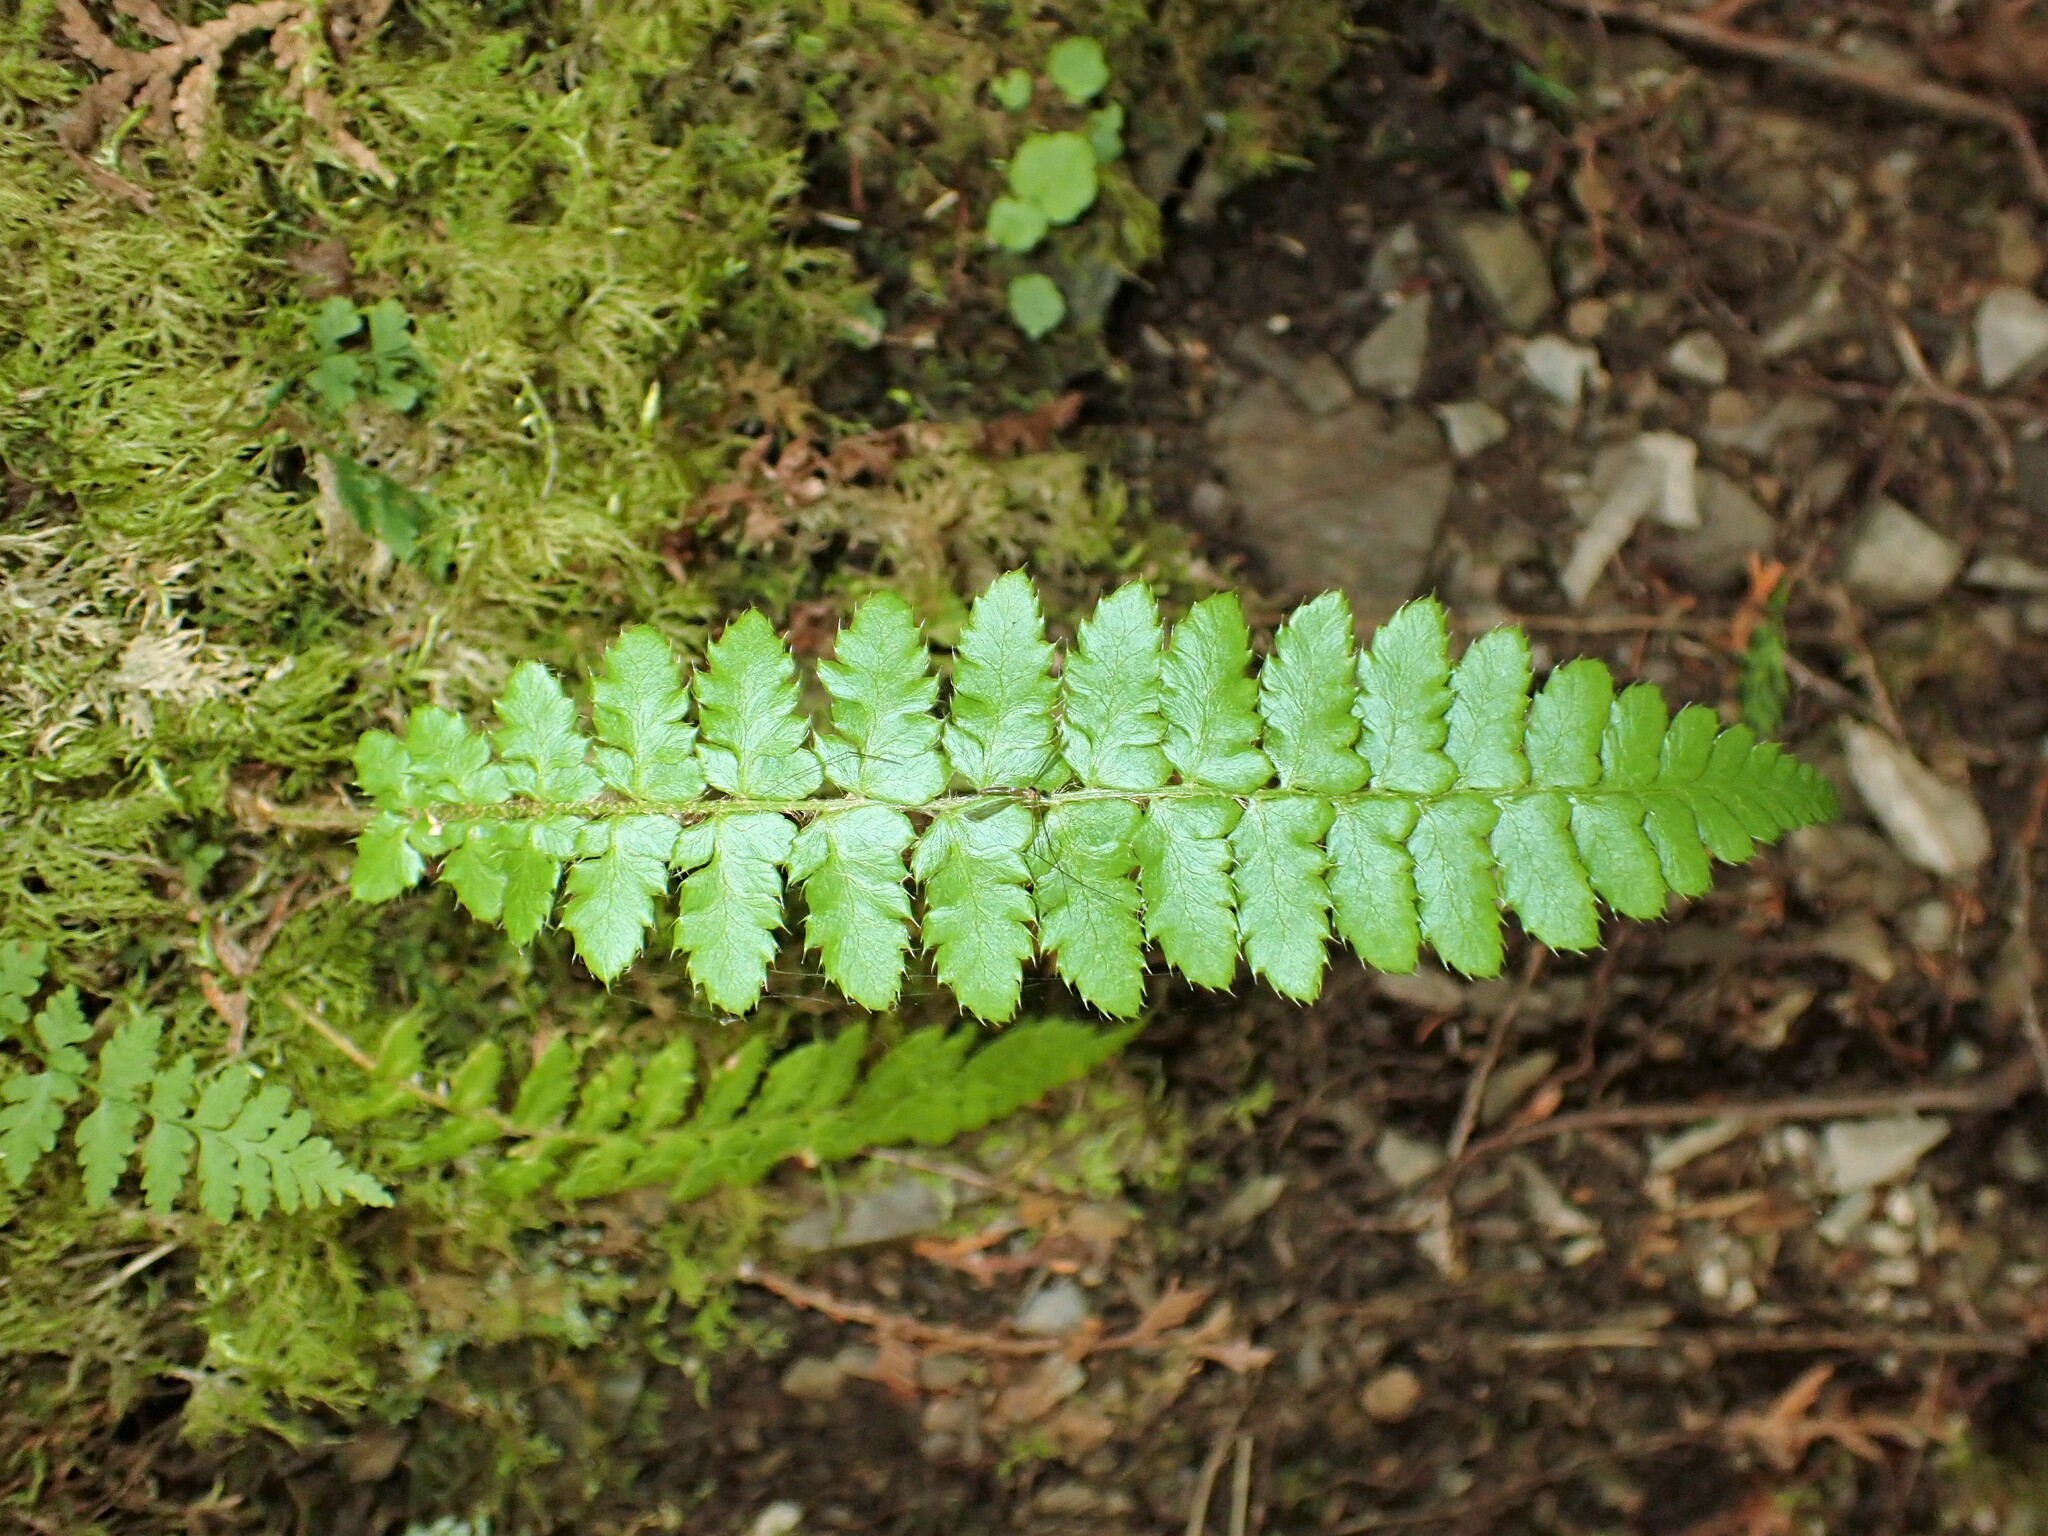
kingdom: Plantae
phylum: Tracheophyta
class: Polypodiopsida
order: Polypodiales
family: Dryopteridaceae
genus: Polystichum
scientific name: Polystichum braunii
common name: Braun's holly fern
